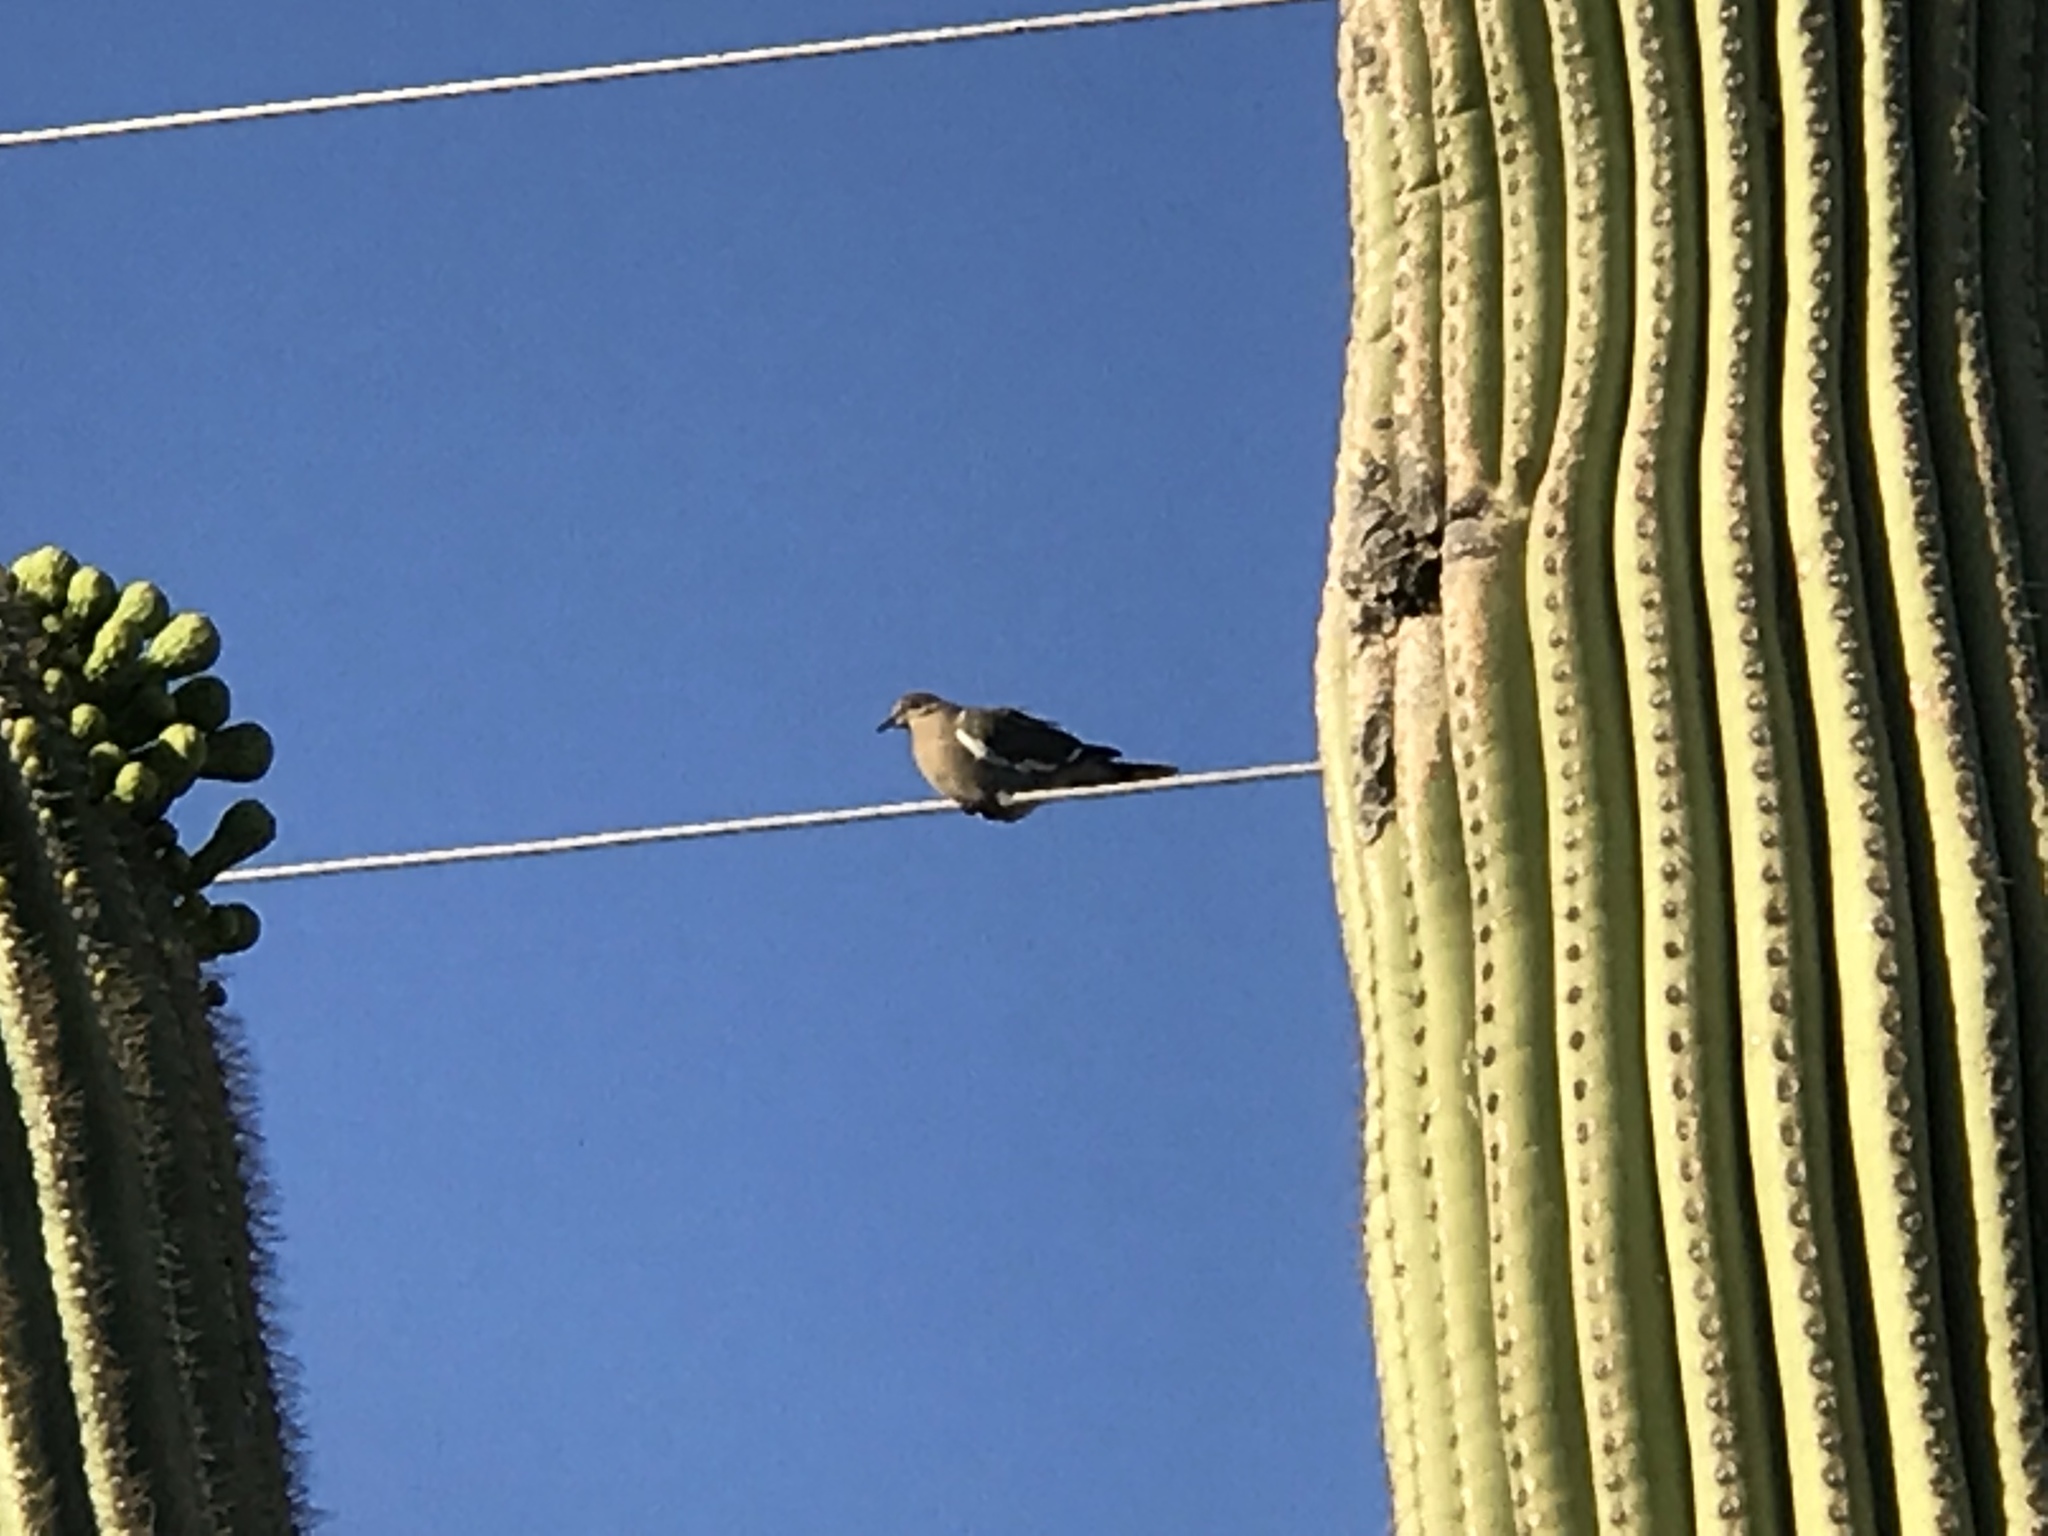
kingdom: Animalia
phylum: Chordata
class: Aves
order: Columbiformes
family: Columbidae
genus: Zenaida
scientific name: Zenaida asiatica
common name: White-winged dove
